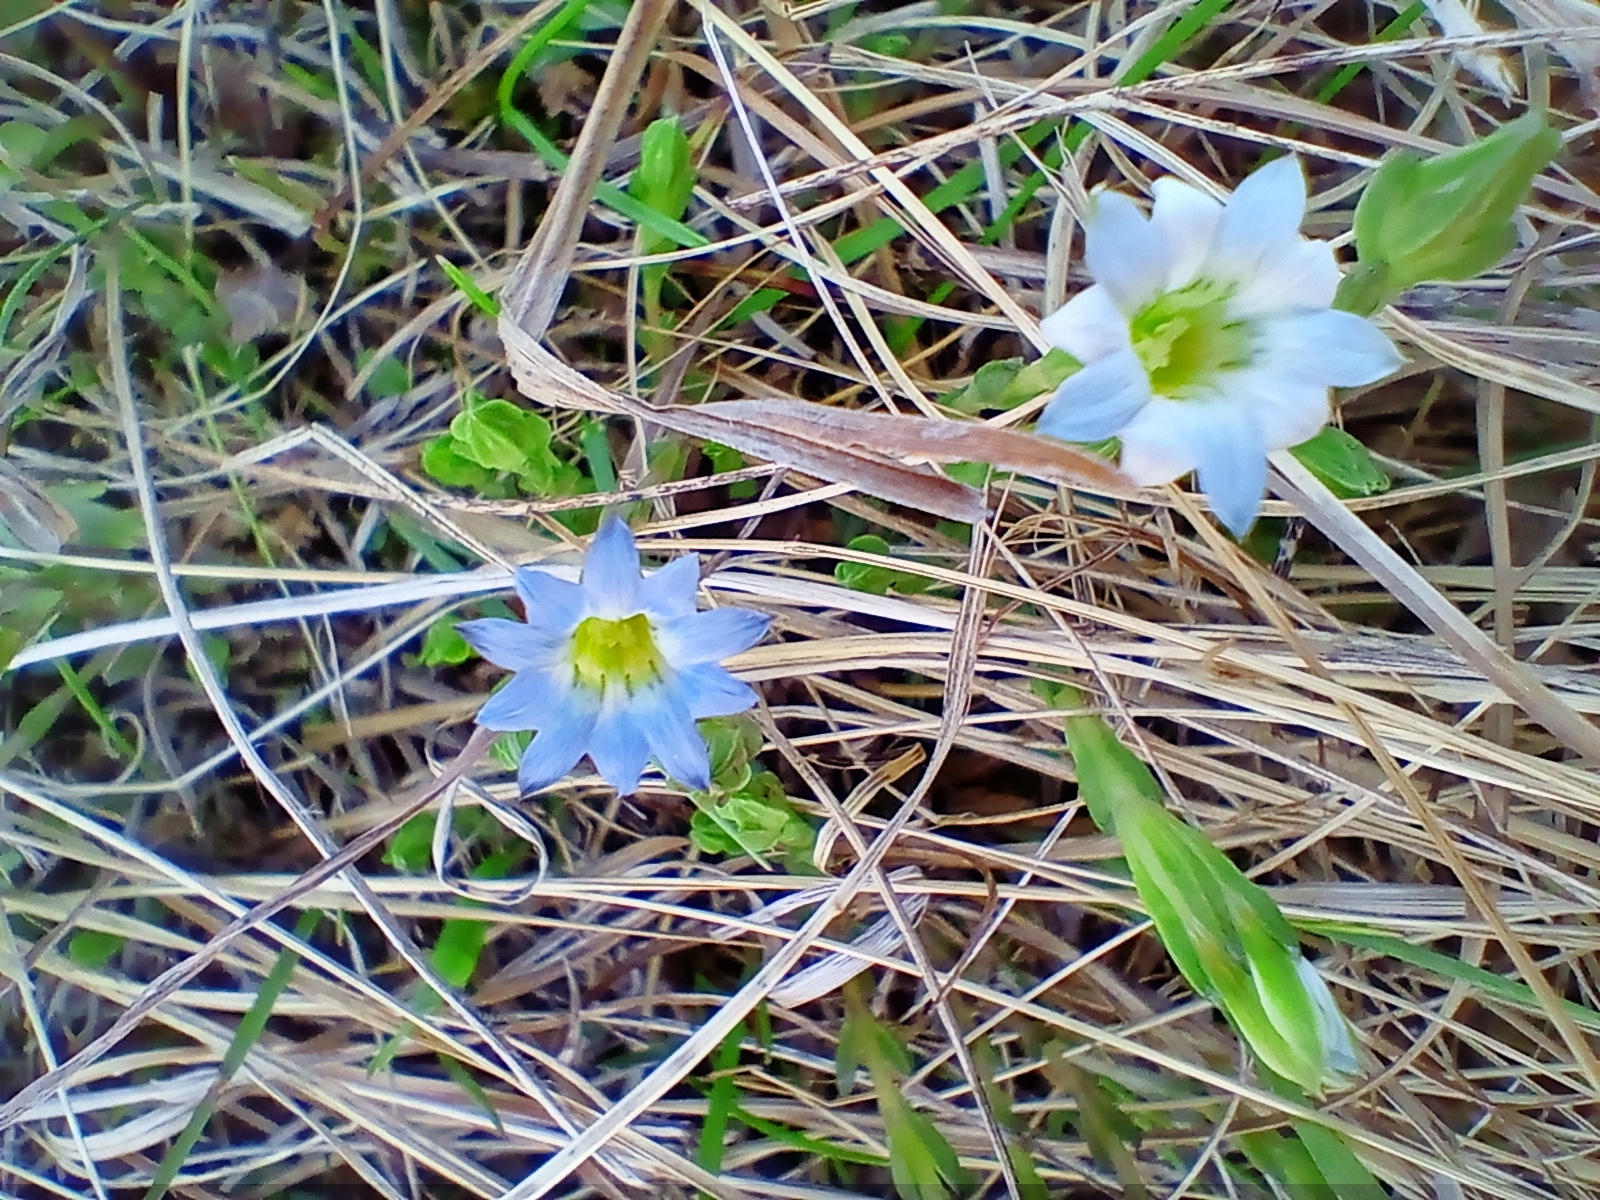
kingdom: Plantae
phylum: Tracheophyta
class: Magnoliopsida
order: Gentianales
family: Gentianaceae
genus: Gentiana
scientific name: Gentiana squarrosa
